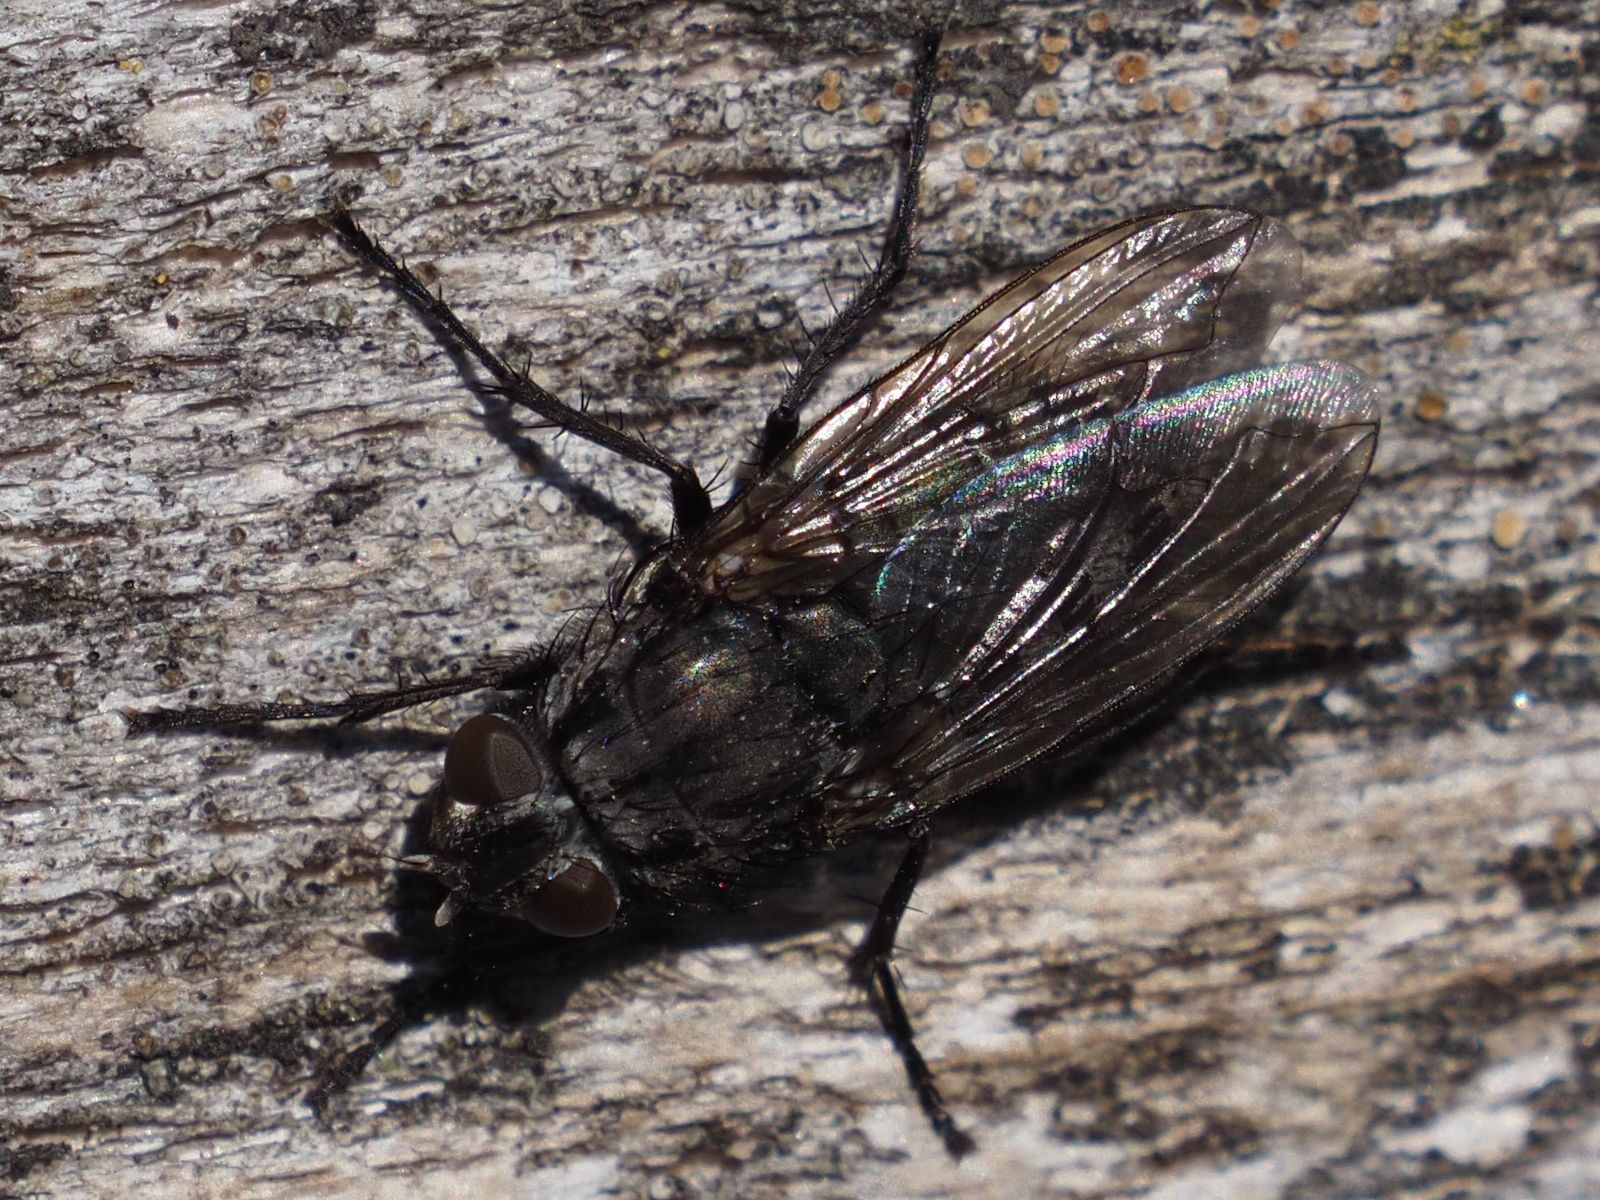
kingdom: Animalia
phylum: Arthropoda
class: Insecta
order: Diptera
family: Polleniidae
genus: Pollenia
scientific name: Pollenia vagabunda
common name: Vagabund cluster fly
